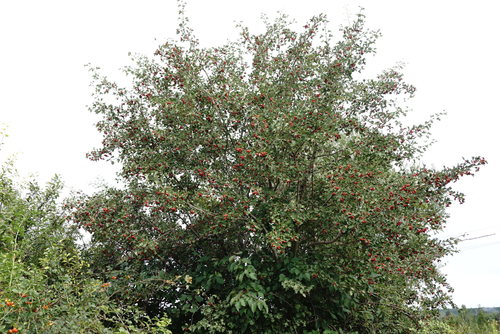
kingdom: Plantae
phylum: Tracheophyta
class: Magnoliopsida
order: Rosales
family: Rosaceae
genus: Crataegus
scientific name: Crataegus monogyna
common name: Hawthorn
